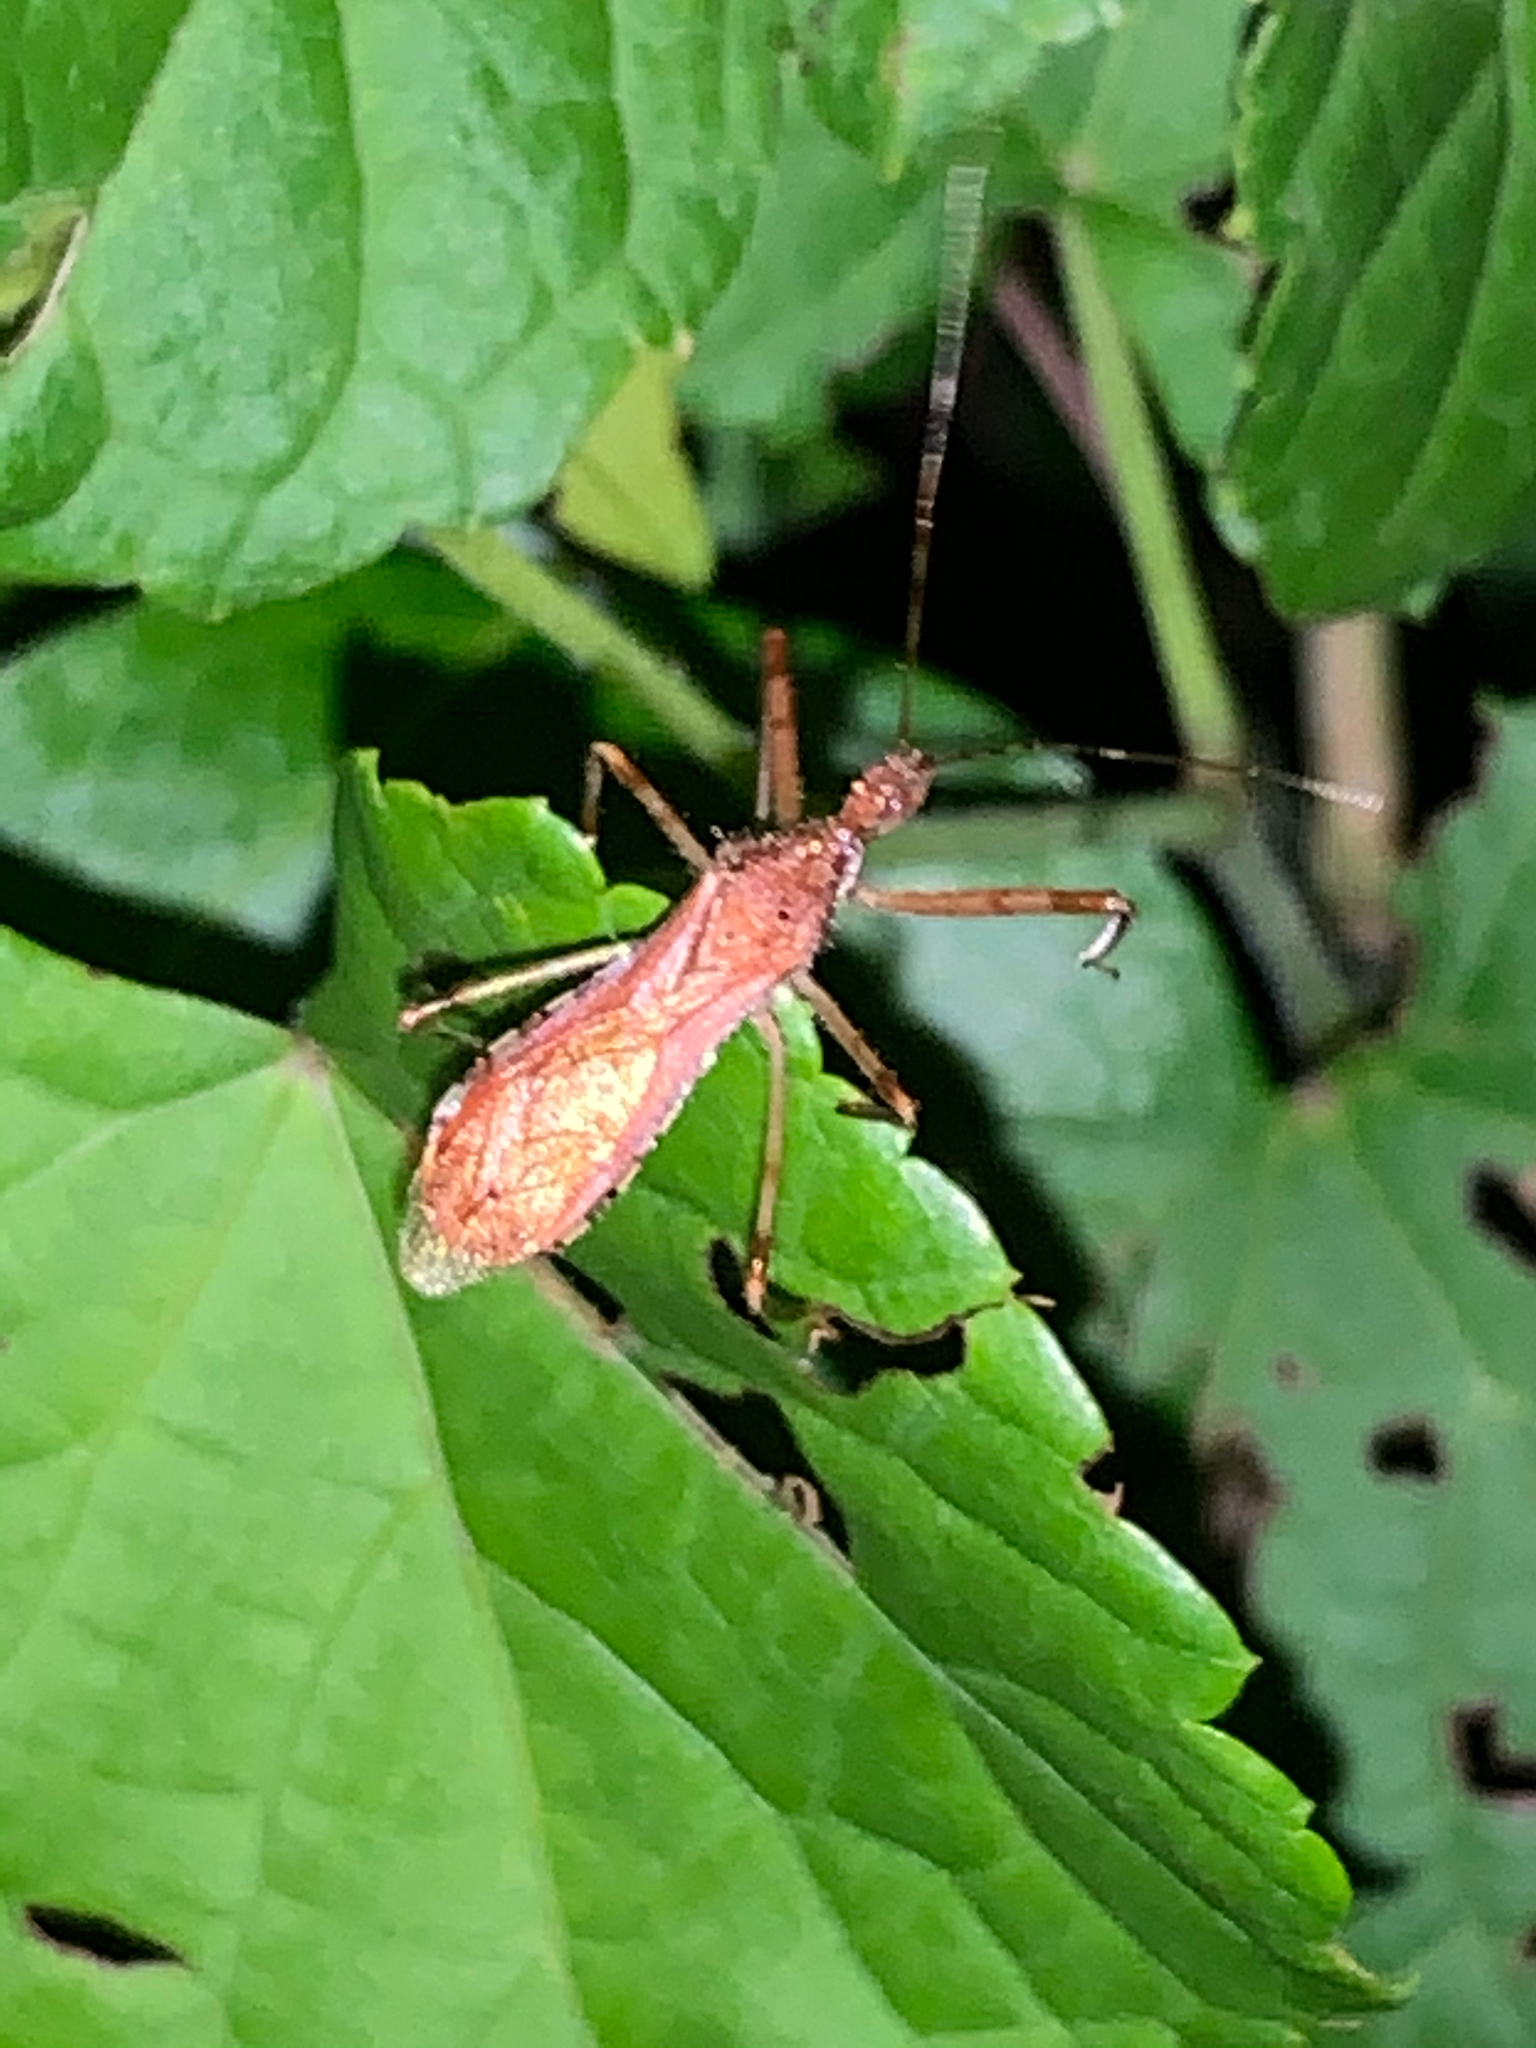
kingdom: Animalia
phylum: Arthropoda
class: Insecta
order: Hemiptera
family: Reduviidae
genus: Rocconota
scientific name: Rocconota annulicornis
